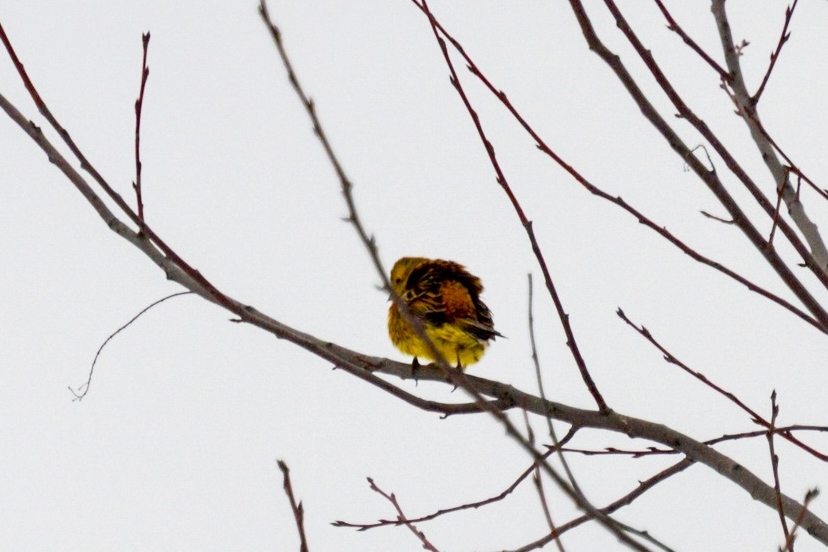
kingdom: Animalia
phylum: Chordata
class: Aves
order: Passeriformes
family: Emberizidae
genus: Emberiza
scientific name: Emberiza citrinella
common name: Yellowhammer
